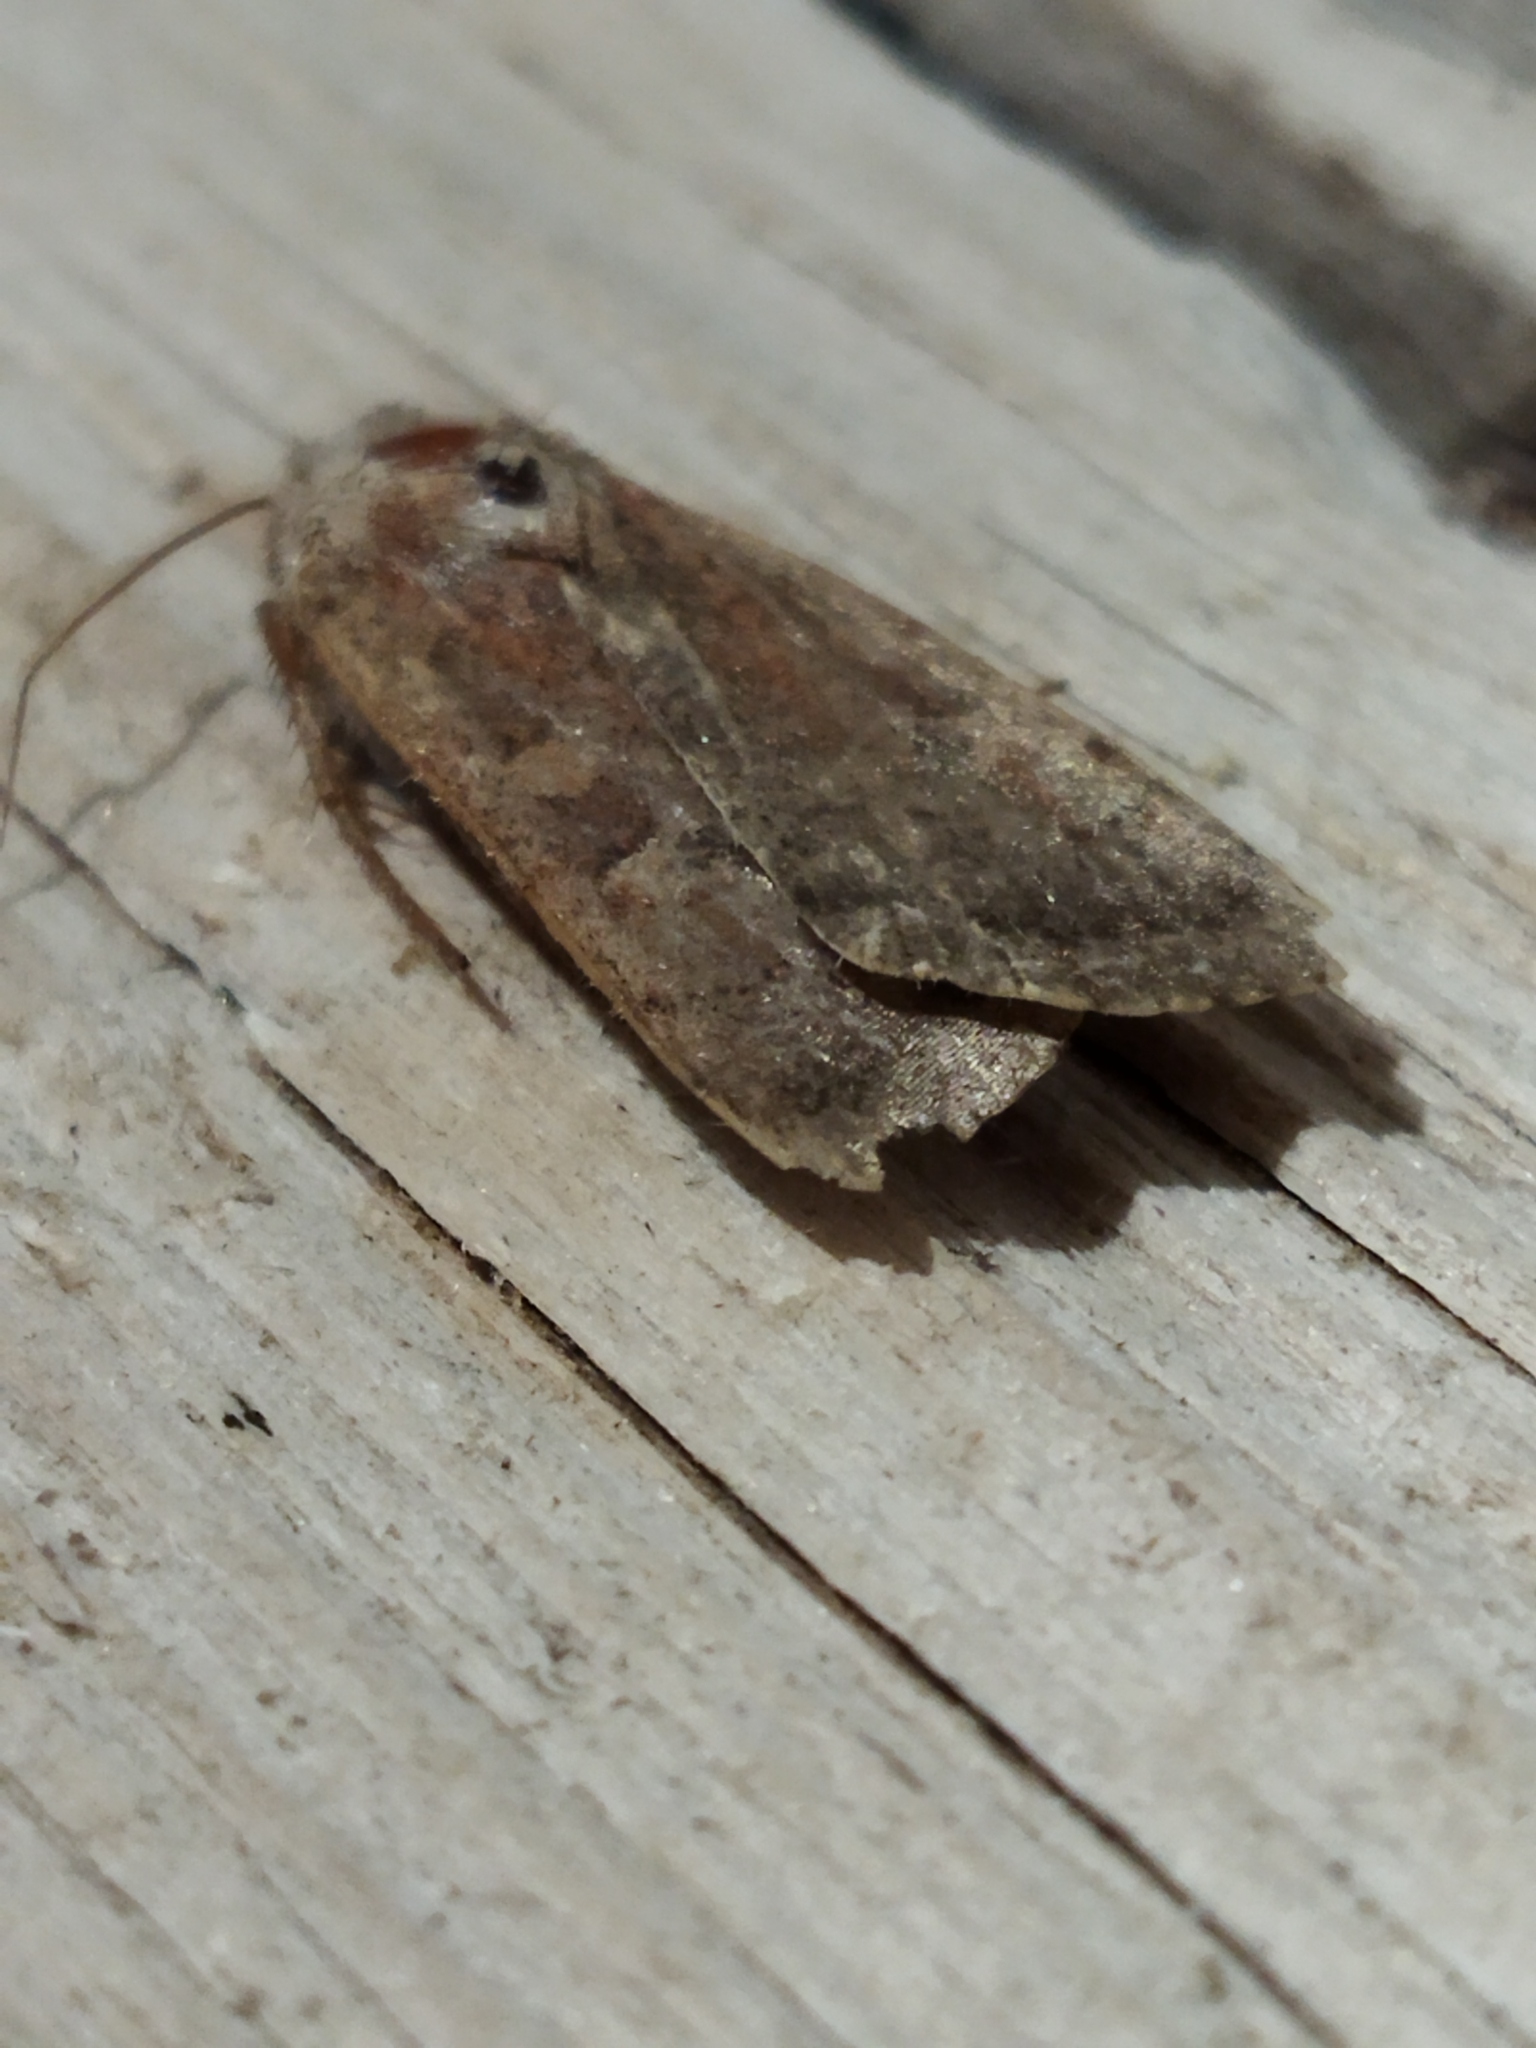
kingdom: Animalia
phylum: Arthropoda
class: Insecta
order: Lepidoptera
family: Noctuidae
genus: Xestia
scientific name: Xestia xanthographa
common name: Square-spot rustic
